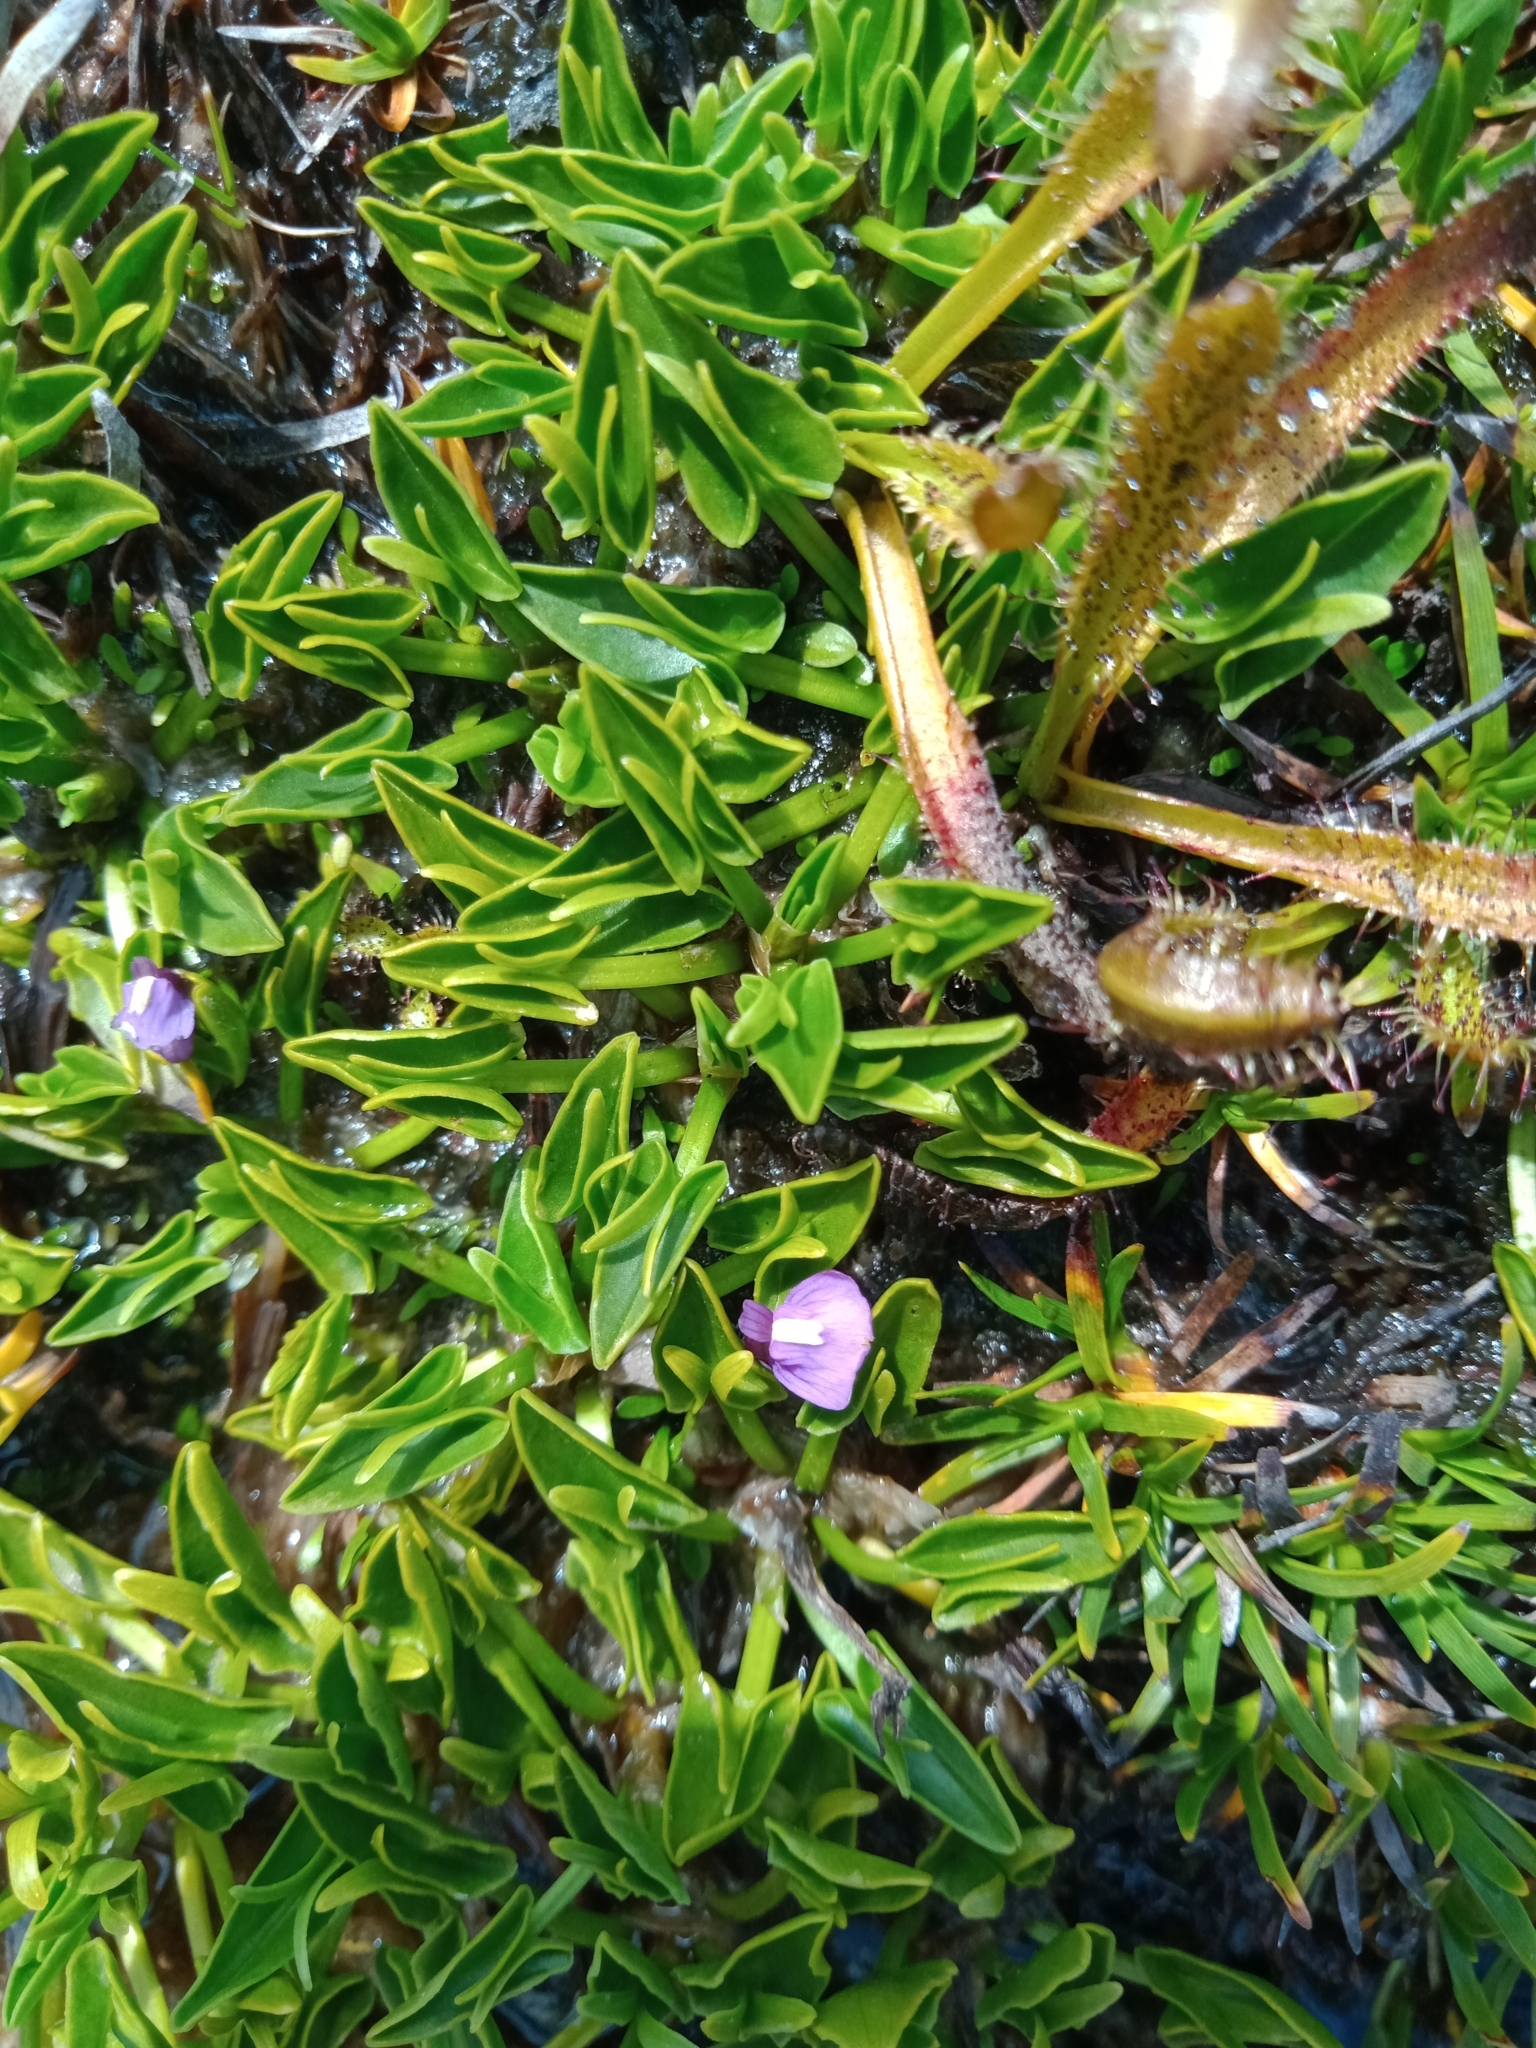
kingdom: Plantae
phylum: Tracheophyta
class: Magnoliopsida
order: Lamiales
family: Lentibulariaceae
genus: Utricularia
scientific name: Utricularia dichotoma
